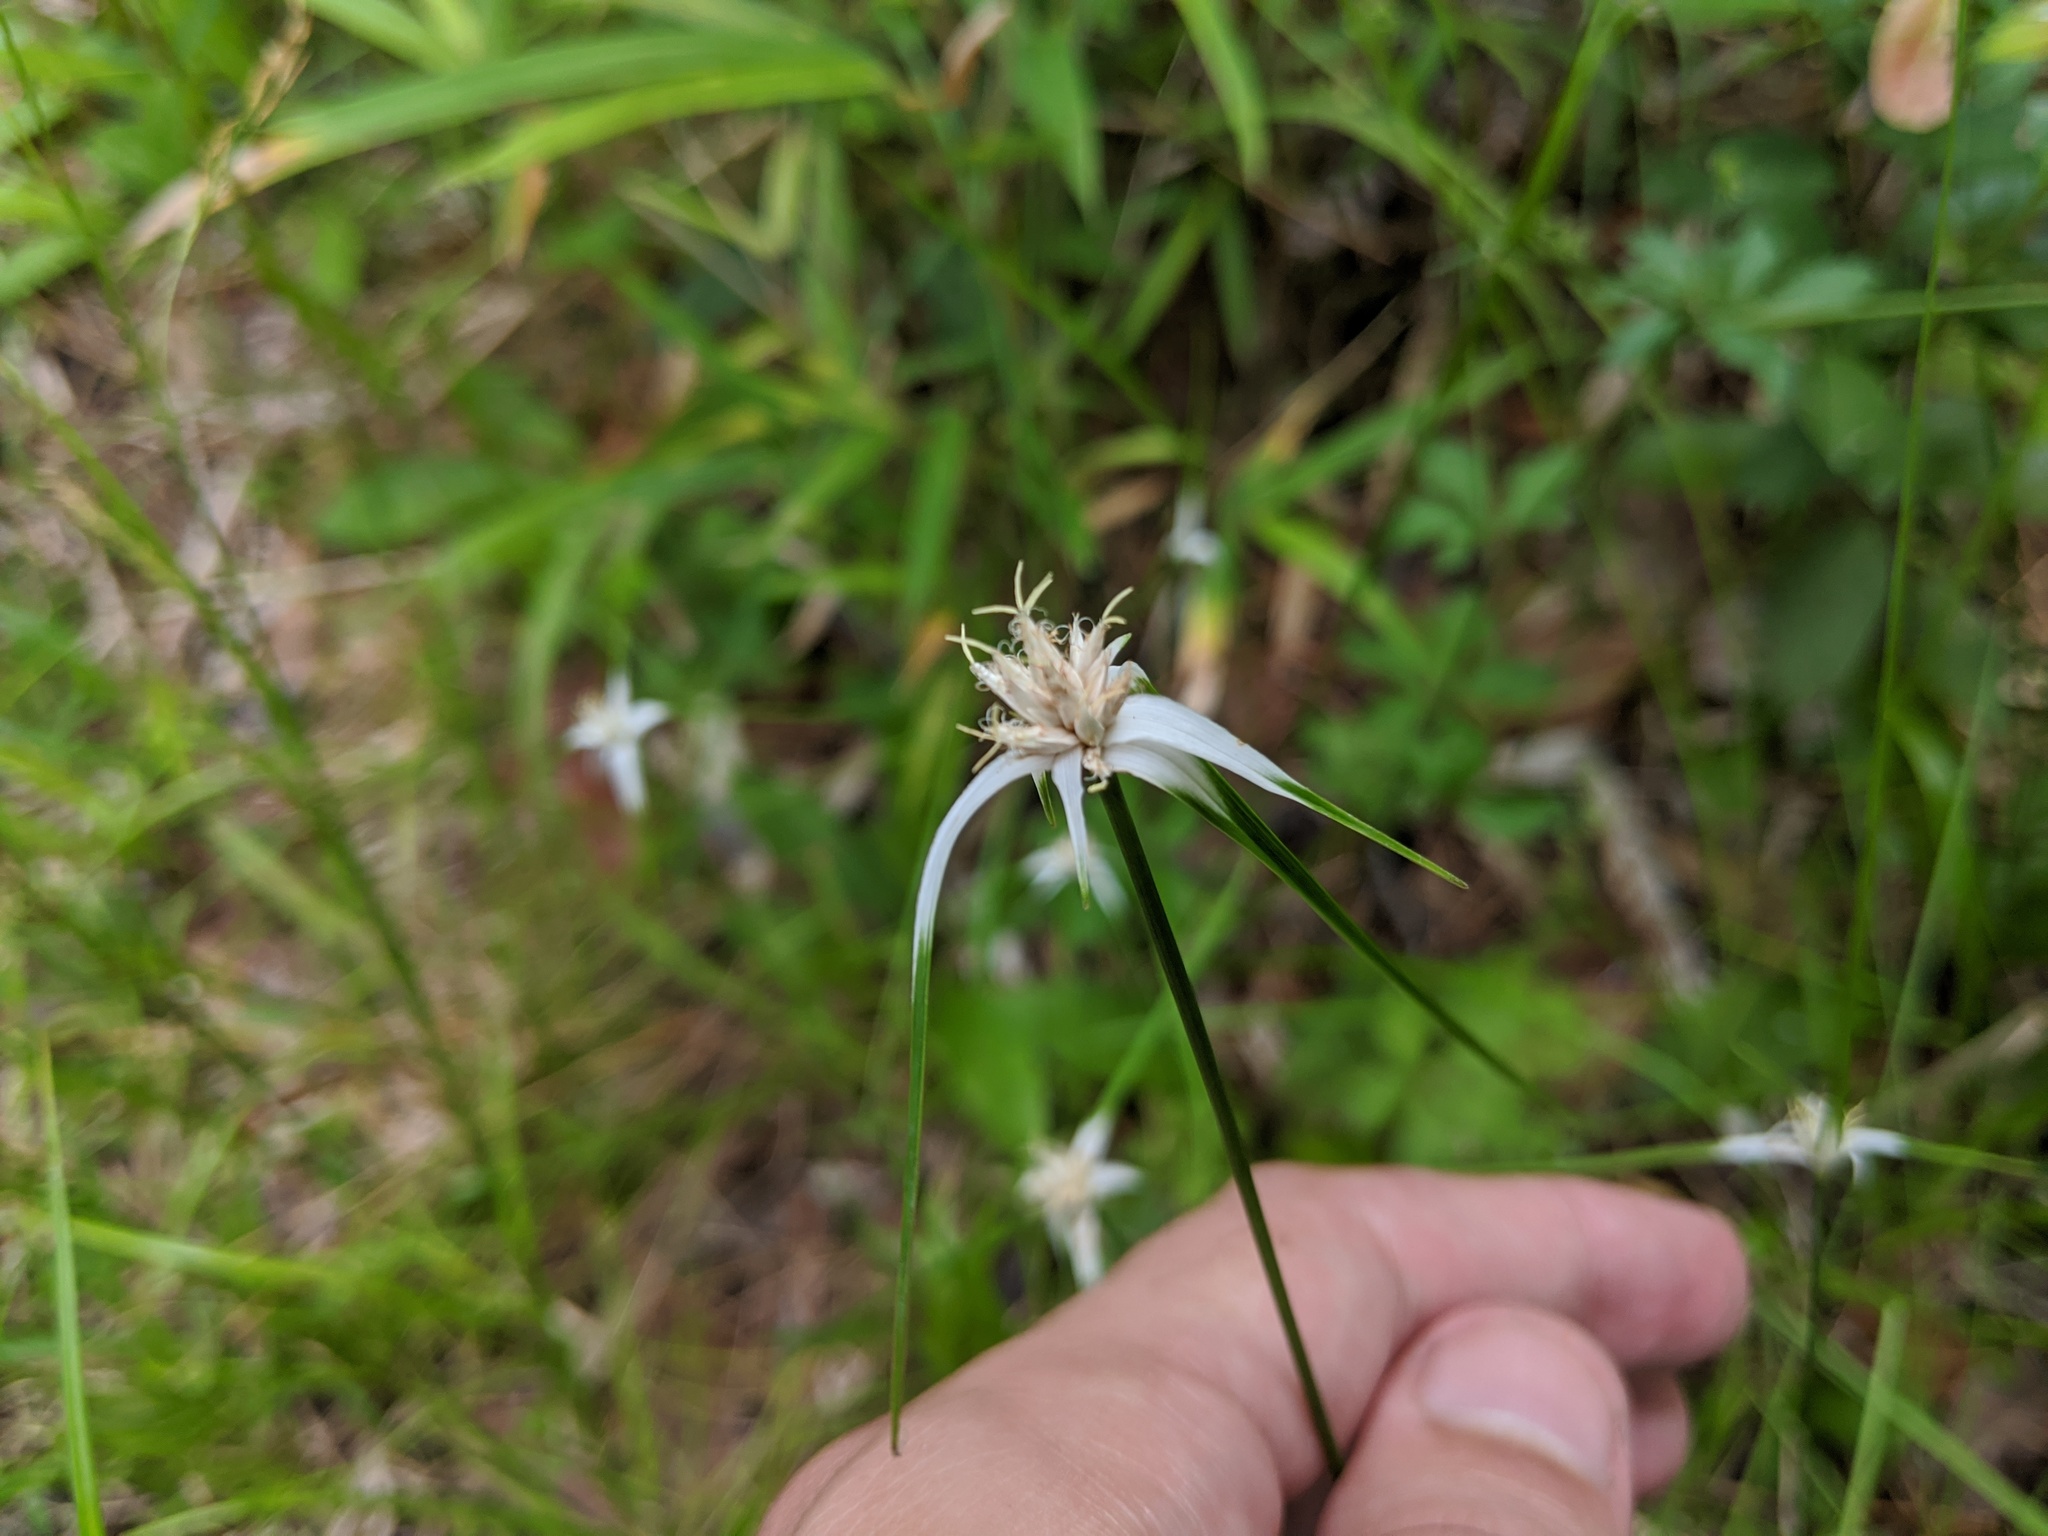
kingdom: Plantae
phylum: Tracheophyta
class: Liliopsida
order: Poales
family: Cyperaceae
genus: Rhynchospora
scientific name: Rhynchospora colorata
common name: Star sedge
